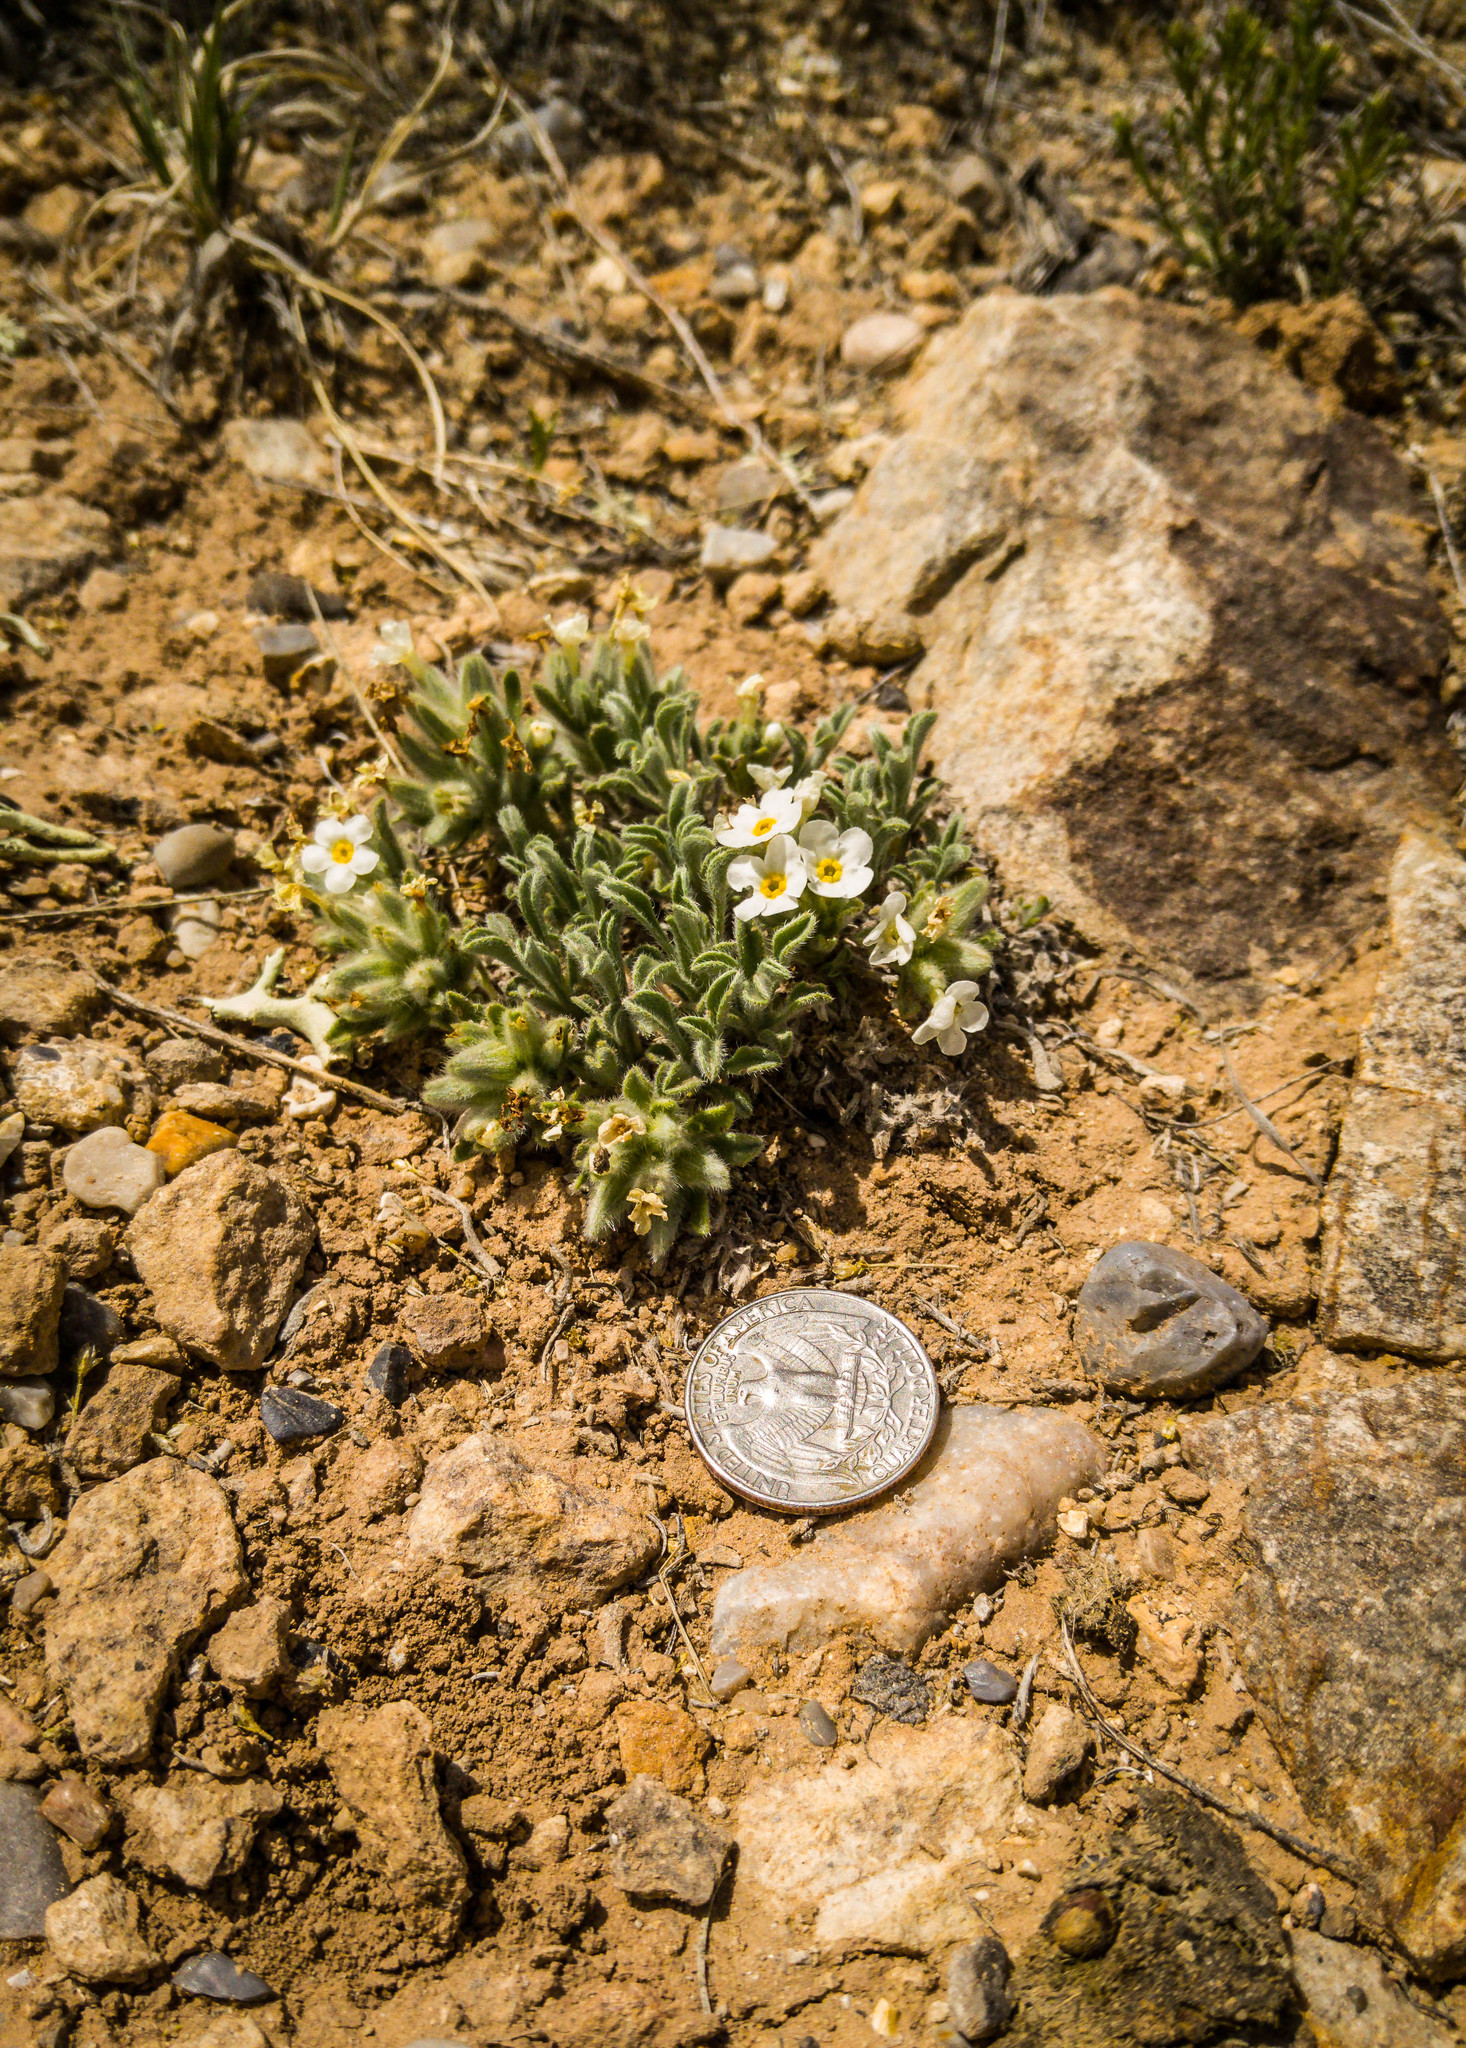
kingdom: Plantae
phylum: Tracheophyta
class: Magnoliopsida
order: Boraginales
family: Boraginaceae
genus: Oreocarya
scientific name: Oreocarya paradoxa
